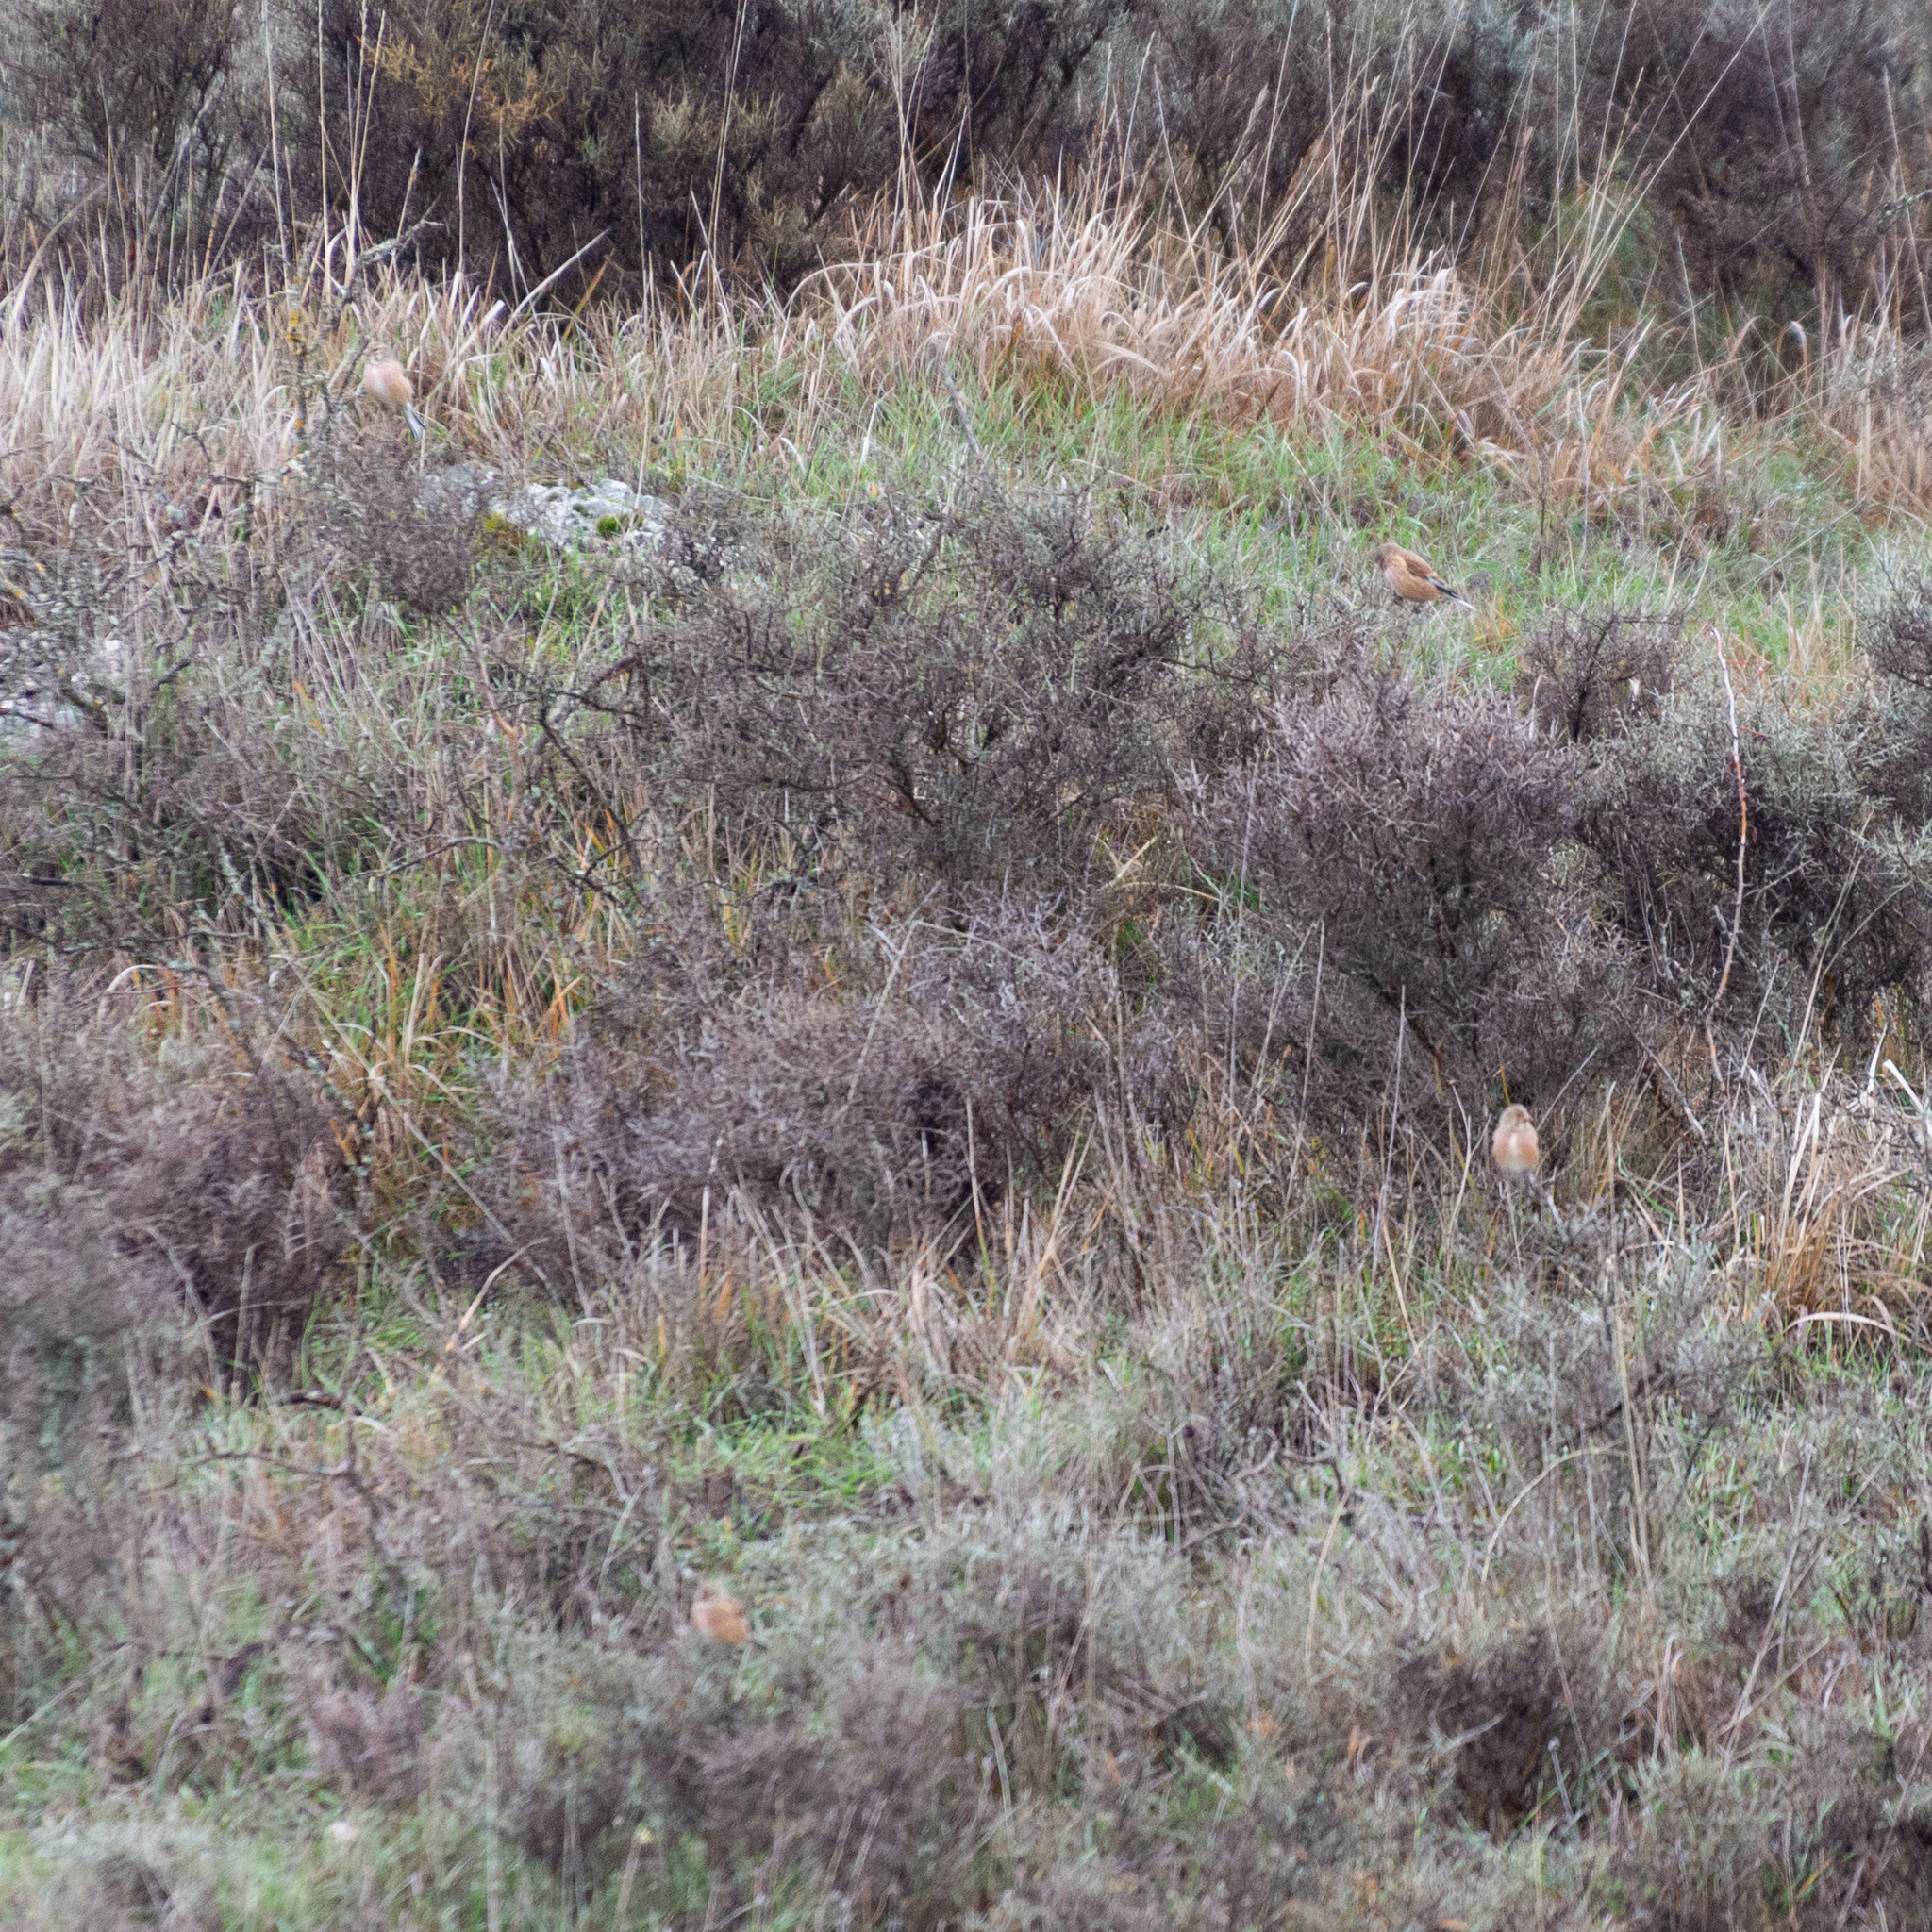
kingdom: Animalia
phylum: Chordata
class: Aves
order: Passeriformes
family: Fringillidae
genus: Linaria
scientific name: Linaria cannabina
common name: Common linnet
